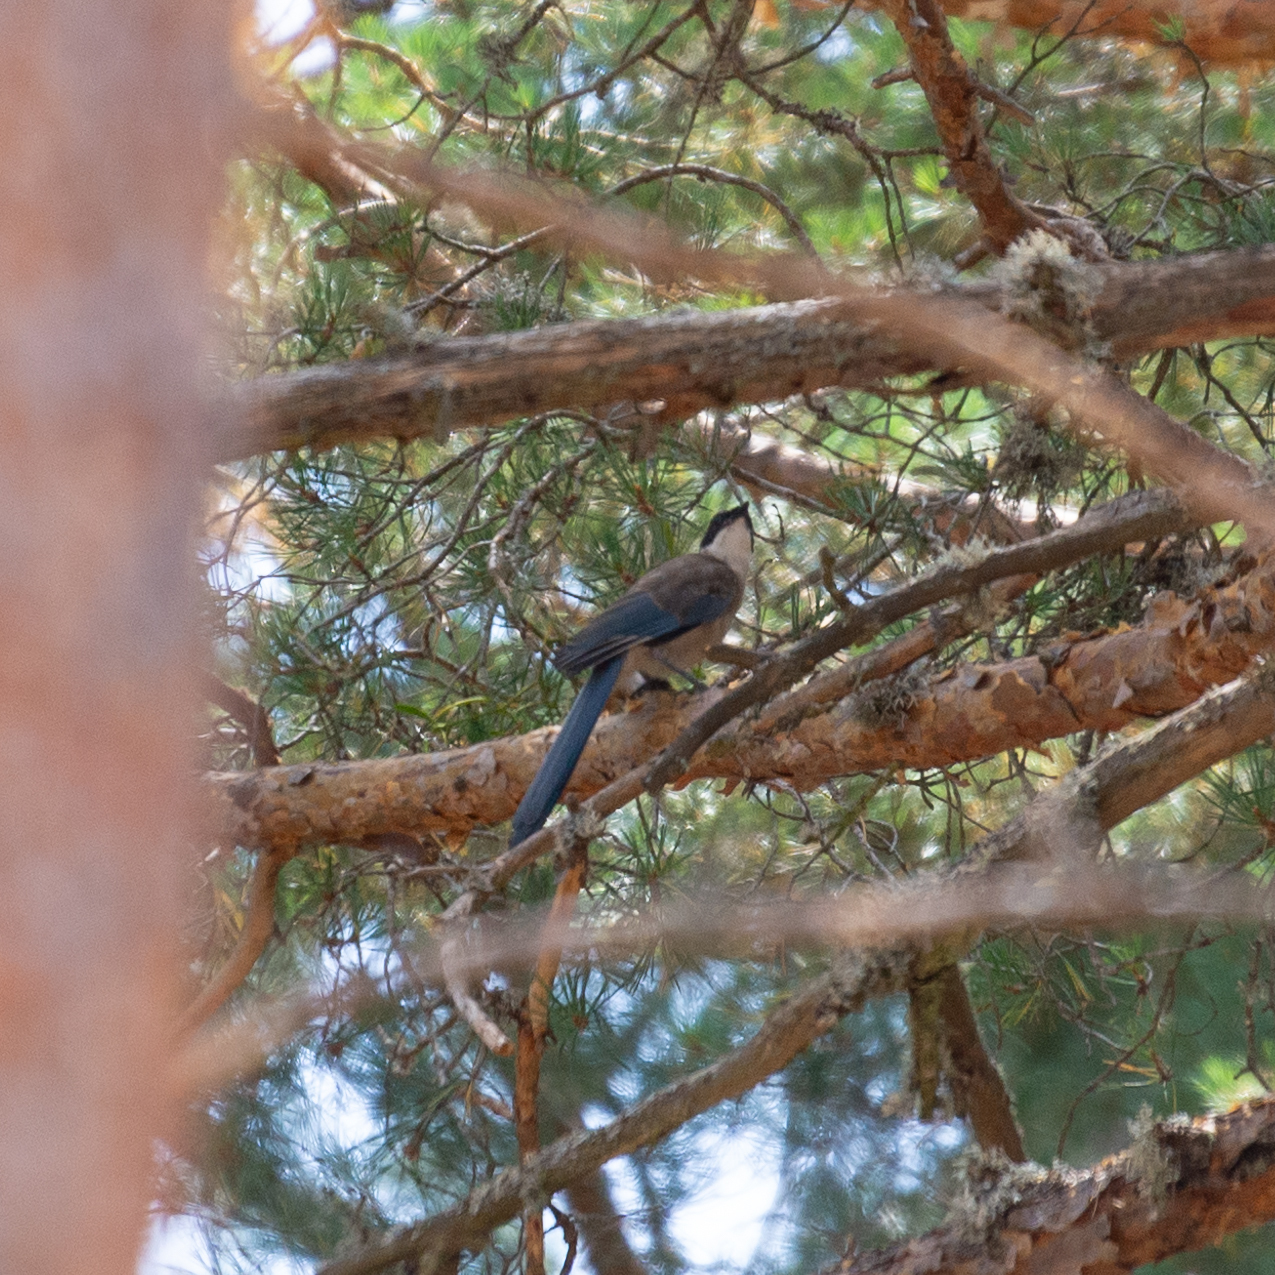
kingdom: Animalia
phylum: Chordata
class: Aves
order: Passeriformes
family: Corvidae
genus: Cyanopica
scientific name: Cyanopica cooki
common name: Iberian magpie
